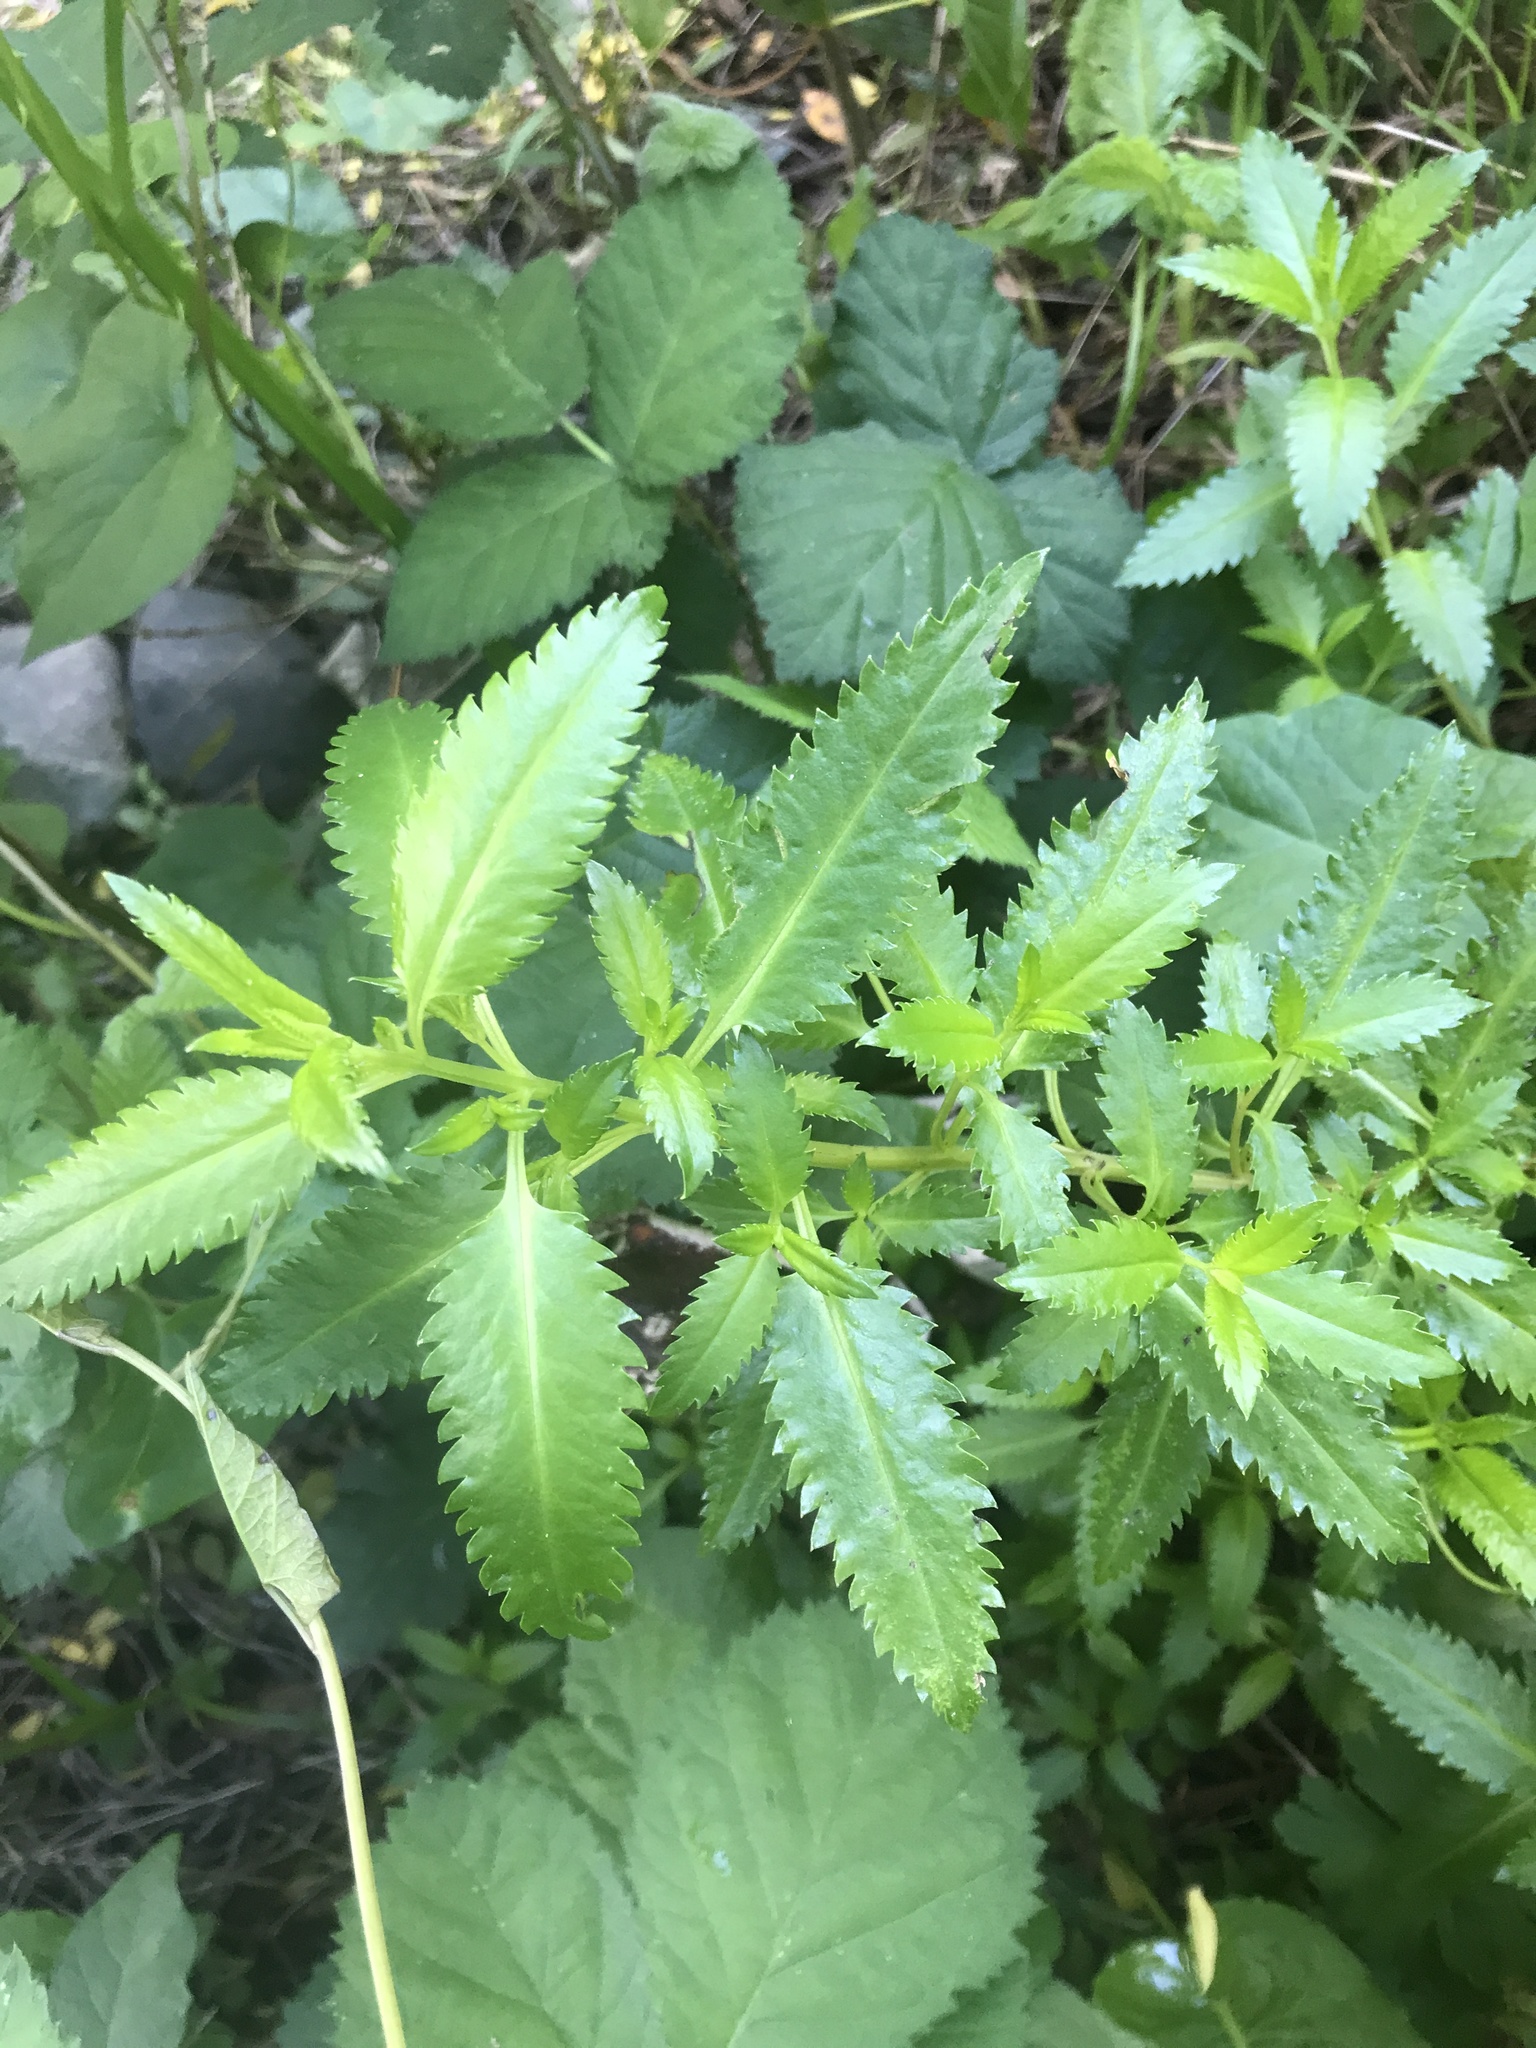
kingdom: Plantae
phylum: Tracheophyta
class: Magnoliopsida
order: Saxifragales
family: Haloragaceae
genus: Haloragis
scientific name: Haloragis erecta
